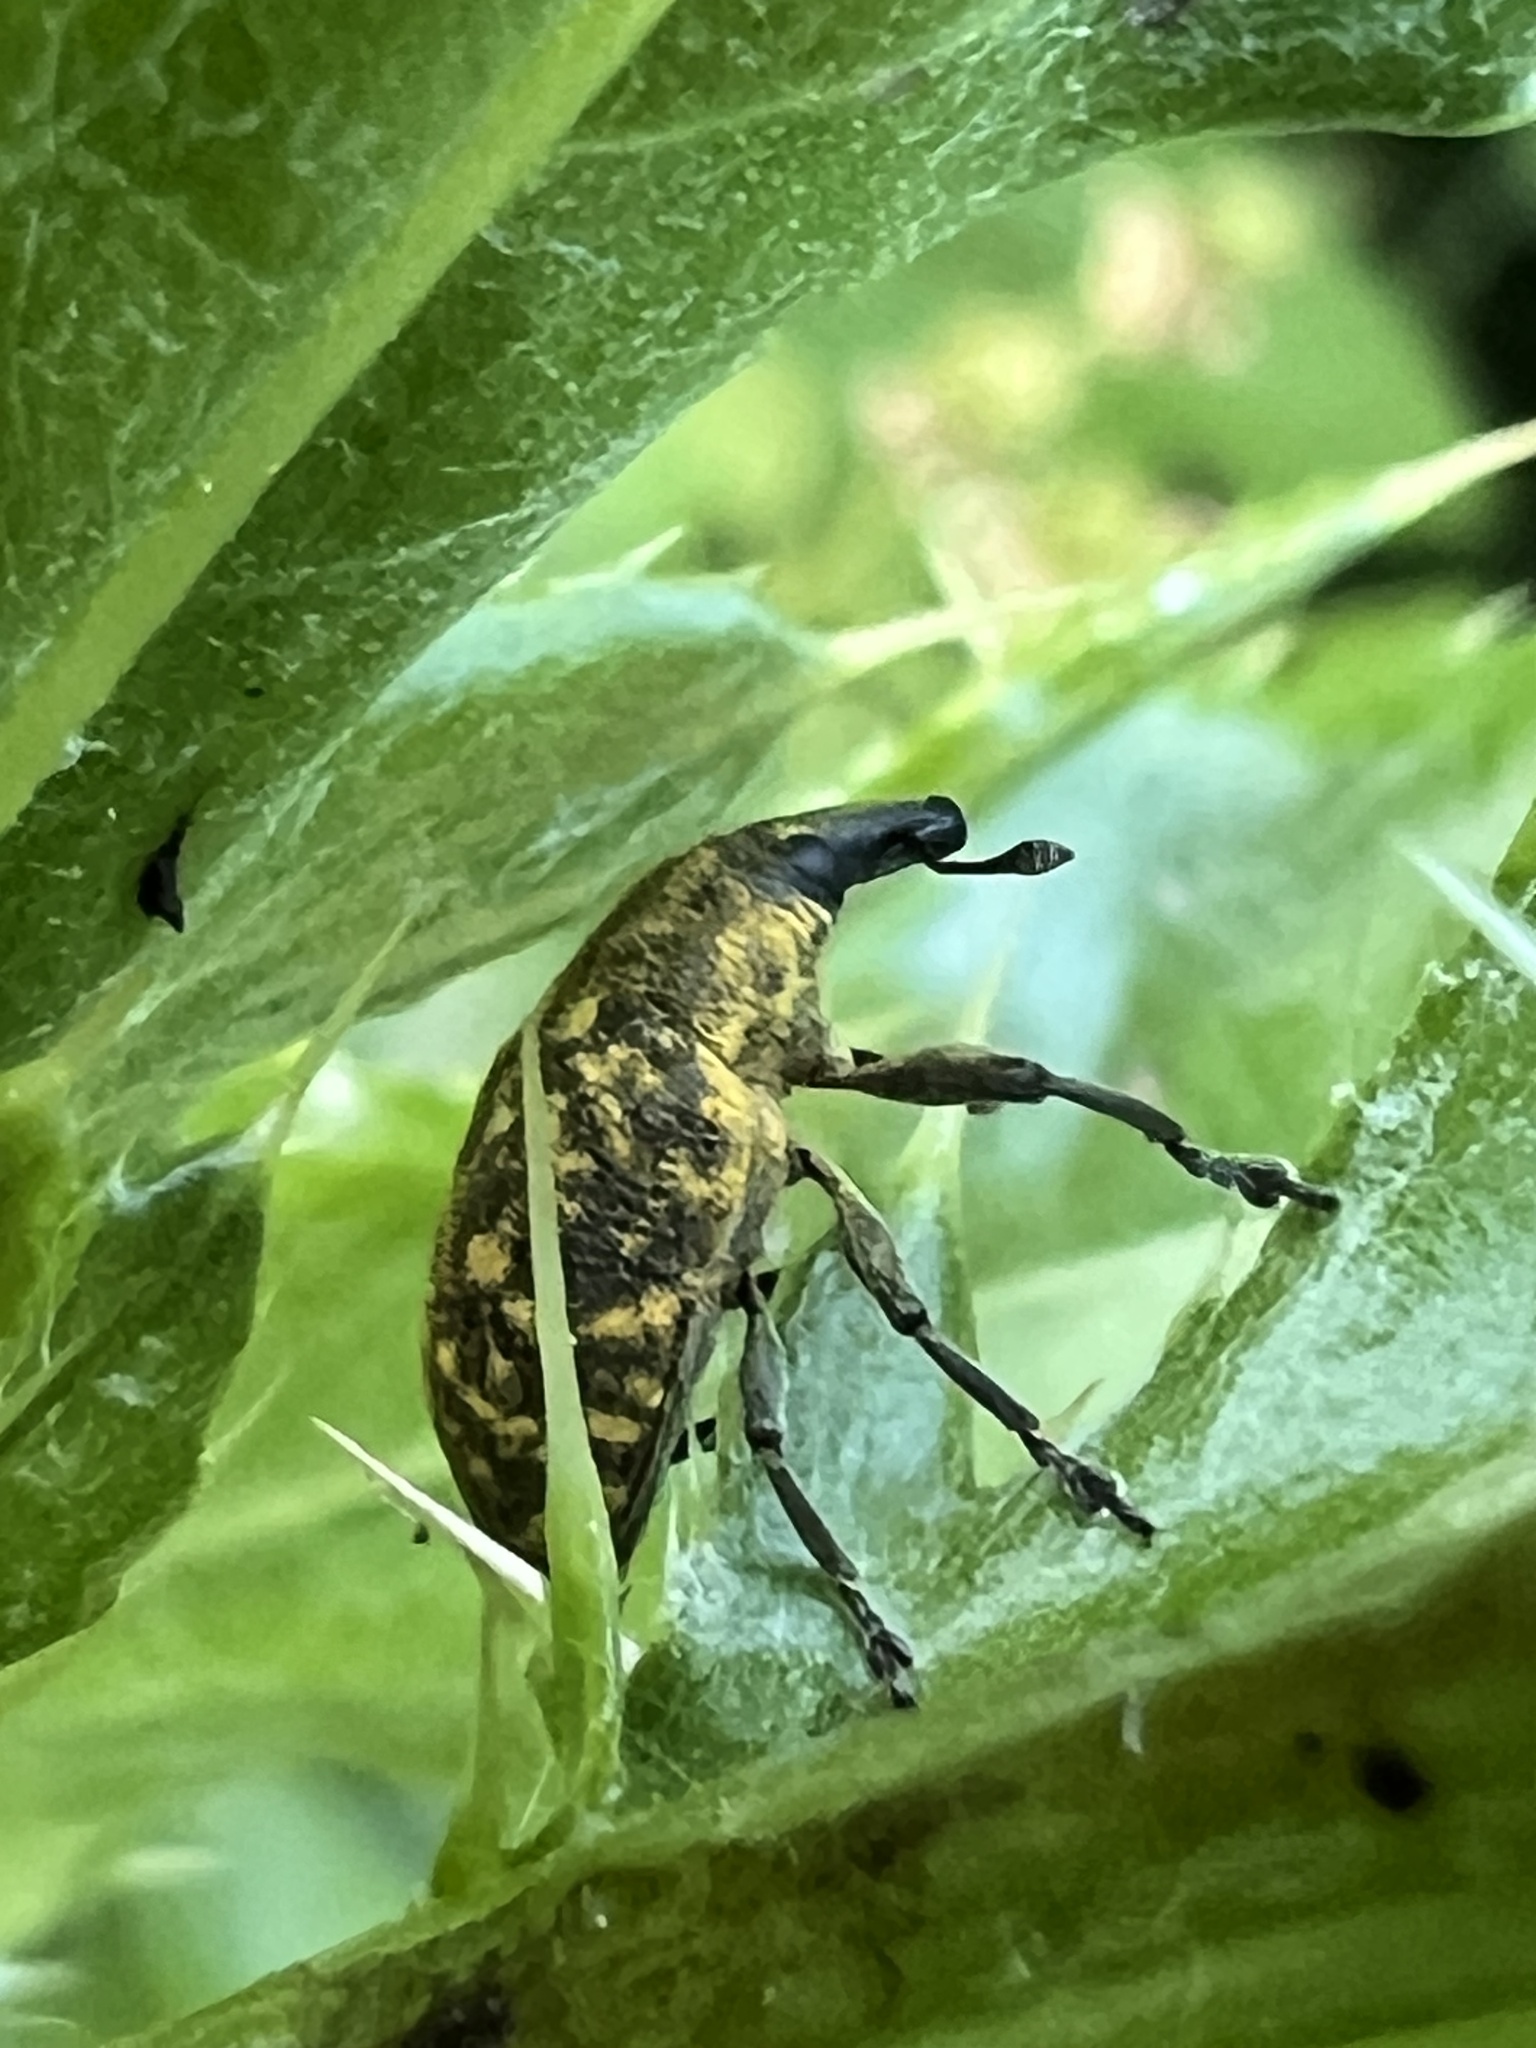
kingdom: Animalia
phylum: Arthropoda
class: Insecta
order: Coleoptera
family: Curculionidae
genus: Larinus
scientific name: Larinus turbinatus
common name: Weevil
